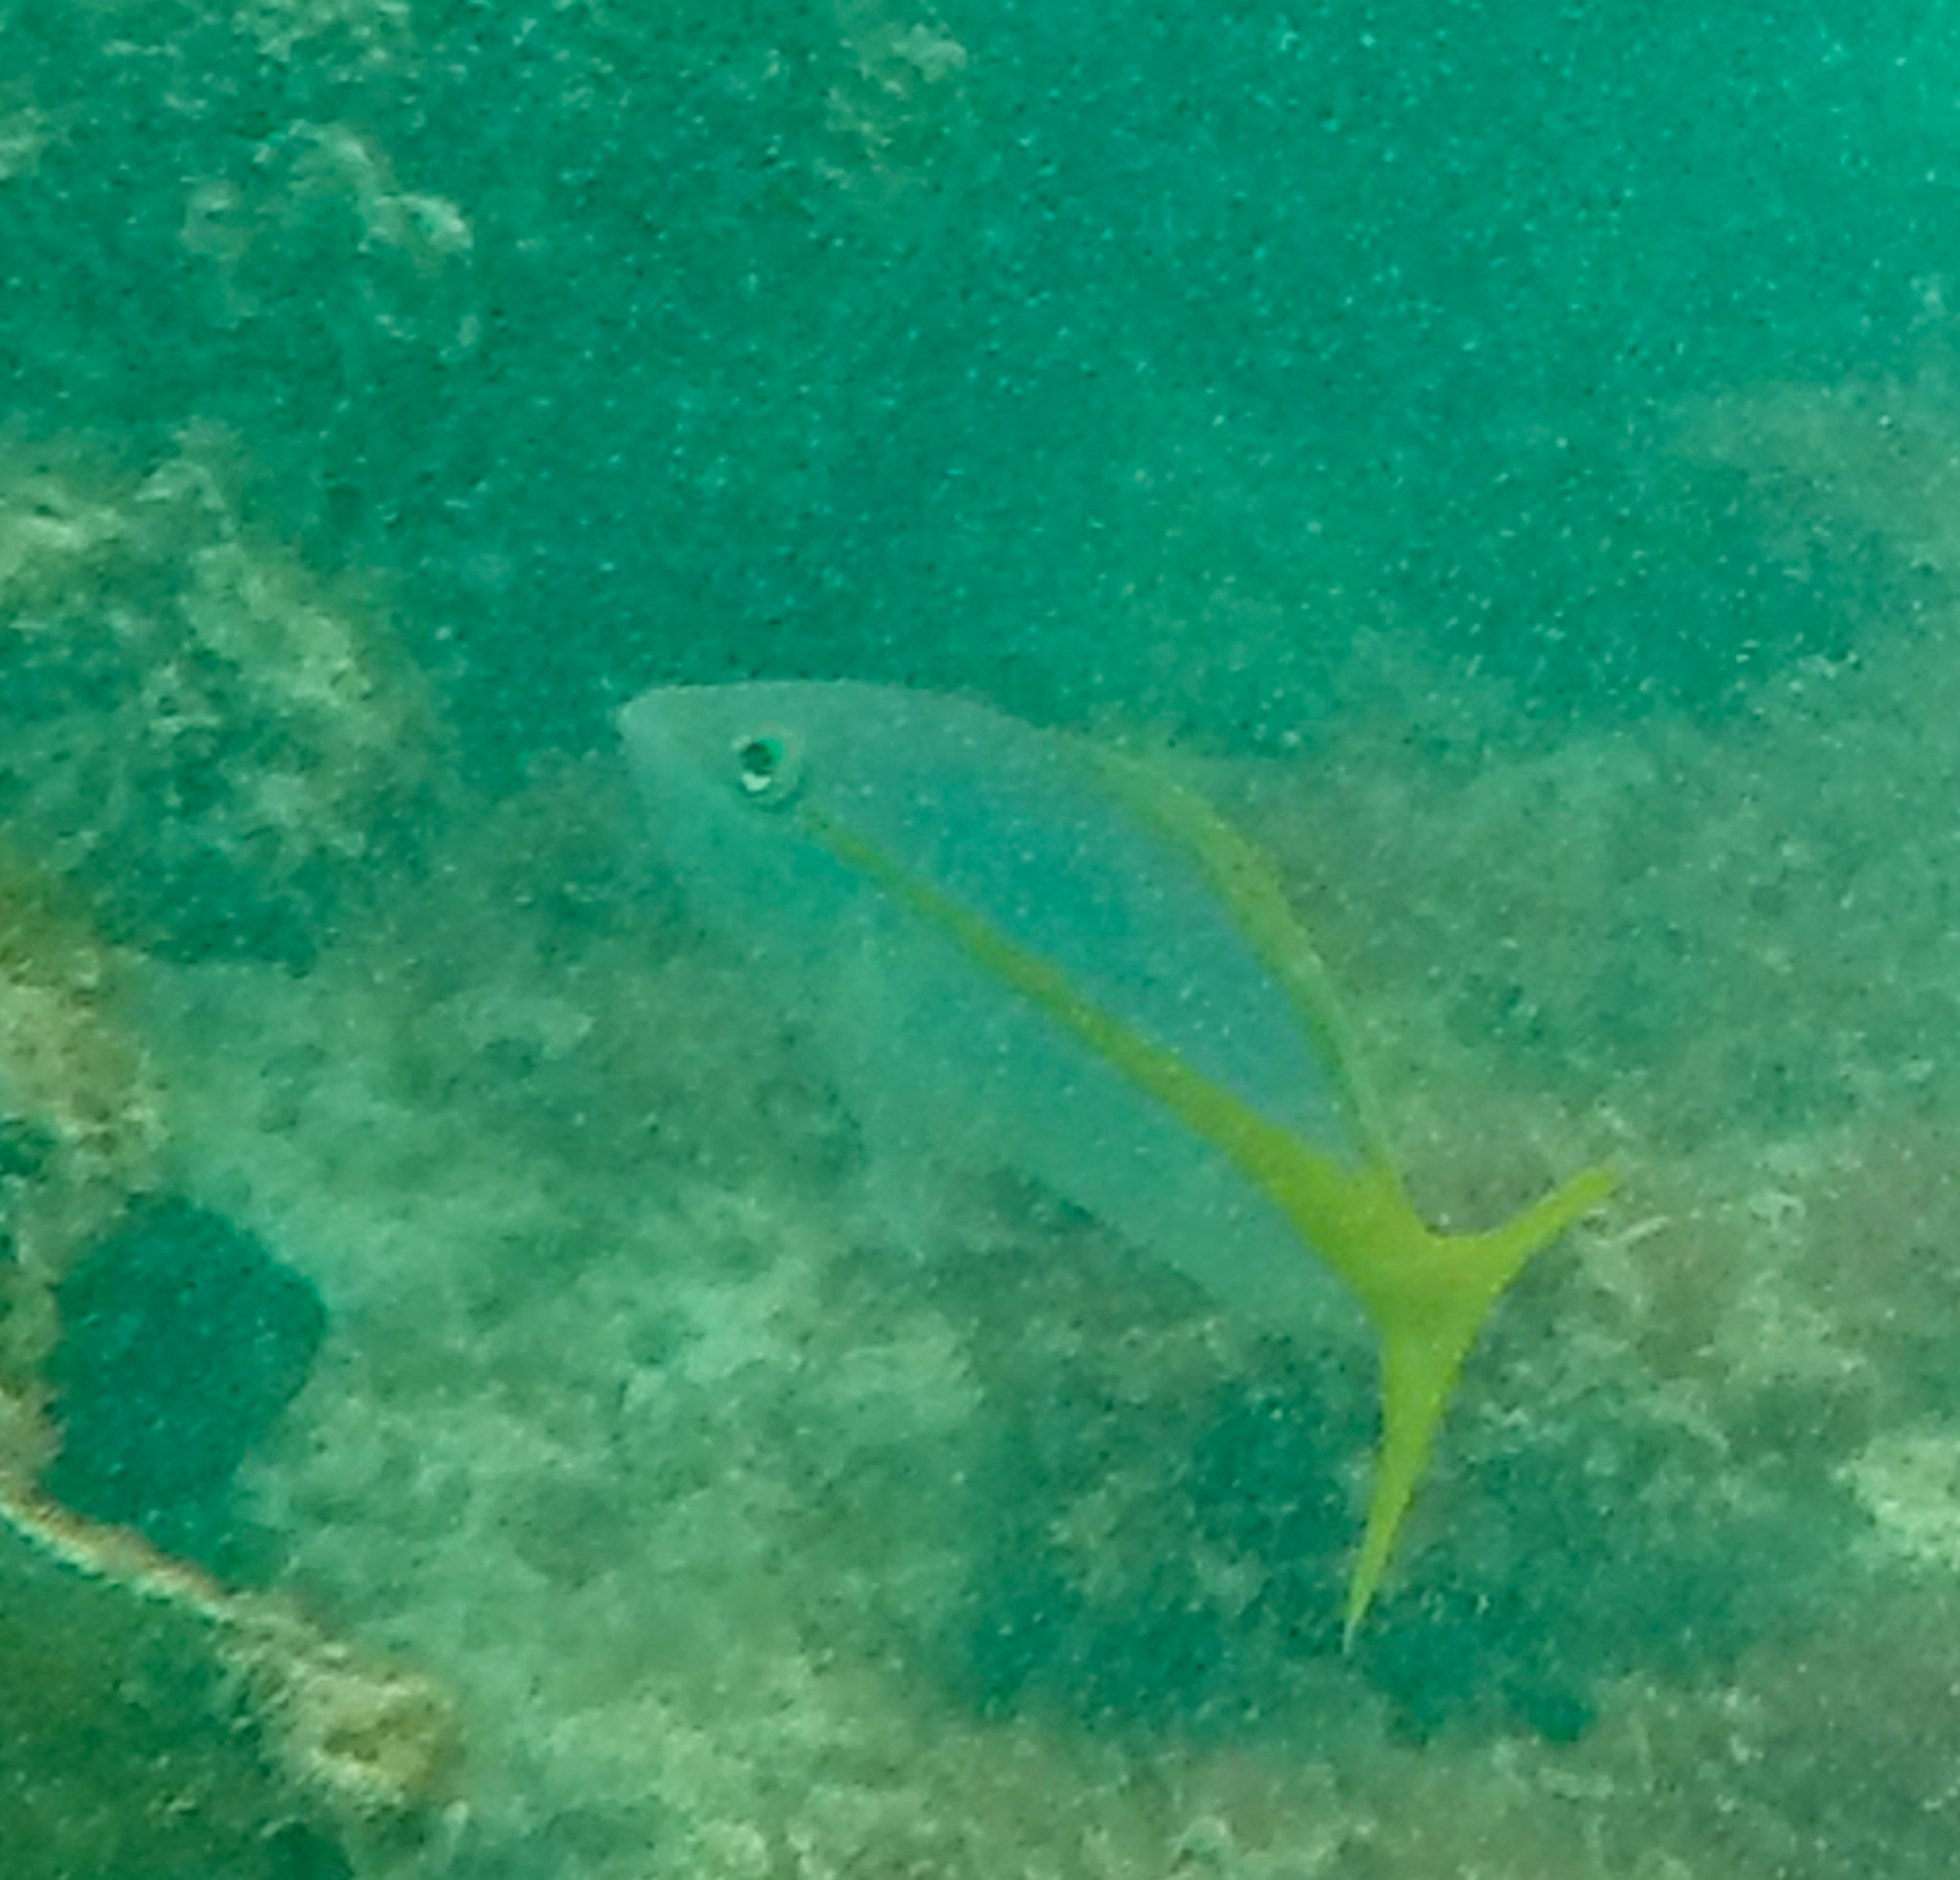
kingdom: Animalia
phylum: Chordata
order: Perciformes
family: Lutjanidae
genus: Ocyurus
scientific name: Ocyurus chrysurus
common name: Yellowtail snapper
